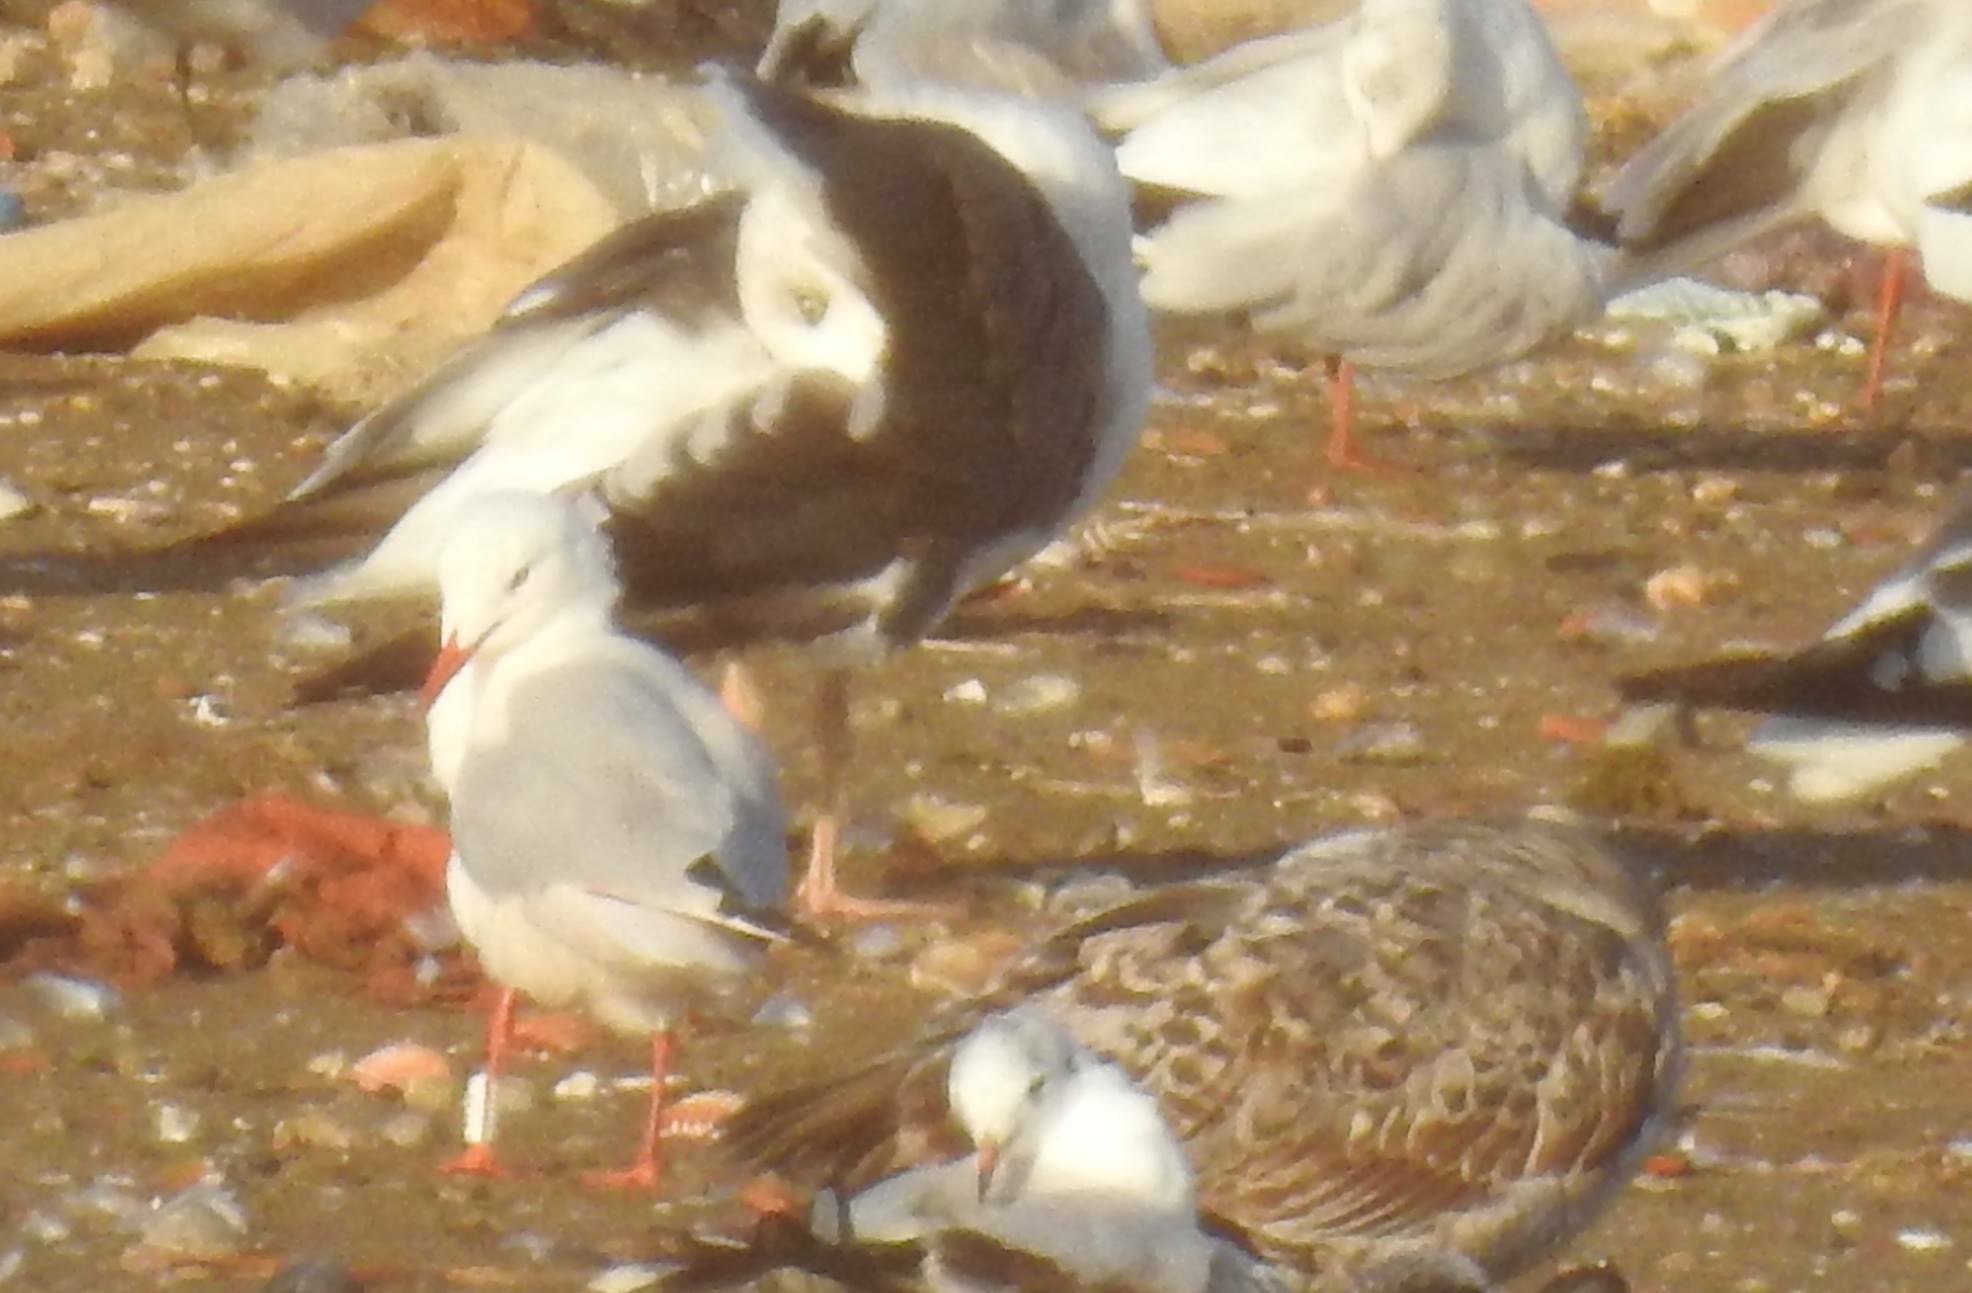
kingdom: Animalia
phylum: Chordata
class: Aves
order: Charadriiformes
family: Laridae
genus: Chroicocephalus
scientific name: Chroicocephalus genei
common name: Slender-billed gull
